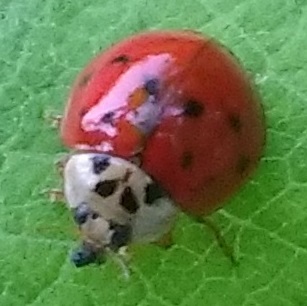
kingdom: Animalia
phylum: Arthropoda
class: Insecta
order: Coleoptera
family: Coccinellidae
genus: Harmonia
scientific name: Harmonia axyridis
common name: Harlequin ladybird
